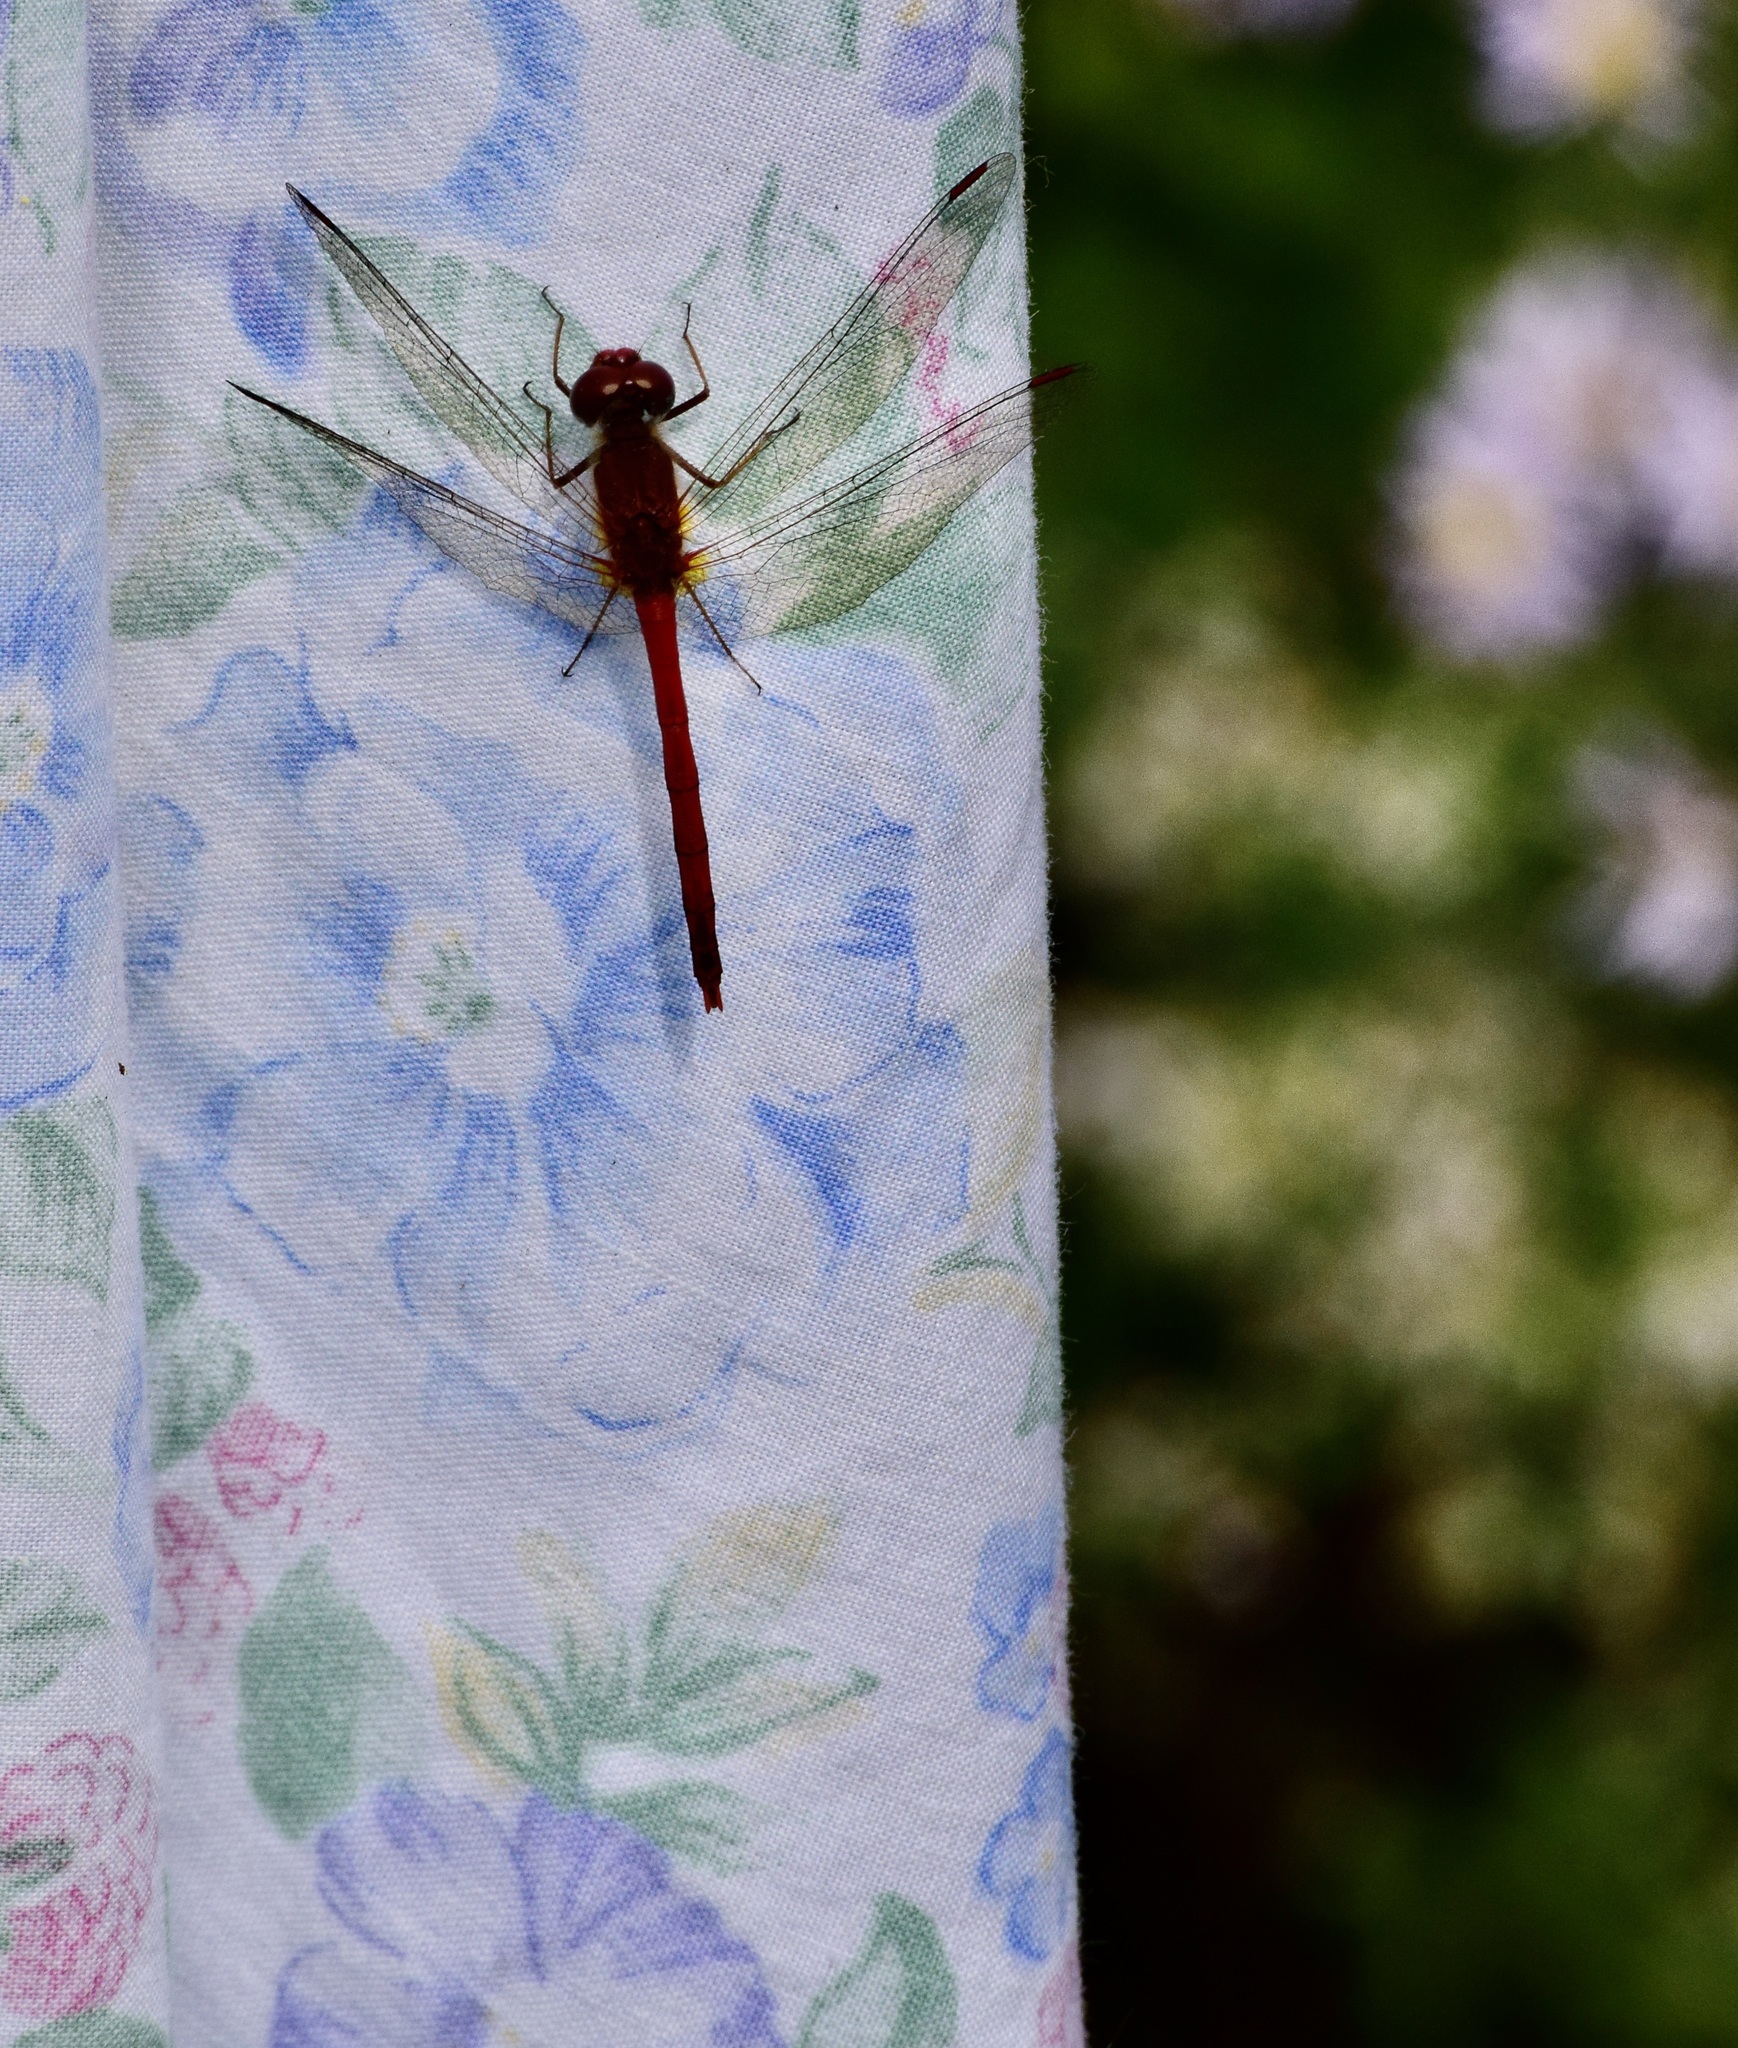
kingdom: Animalia
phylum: Arthropoda
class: Insecta
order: Odonata
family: Libellulidae
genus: Sympetrum
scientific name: Sympetrum vicinum
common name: Autumn meadowhawk
